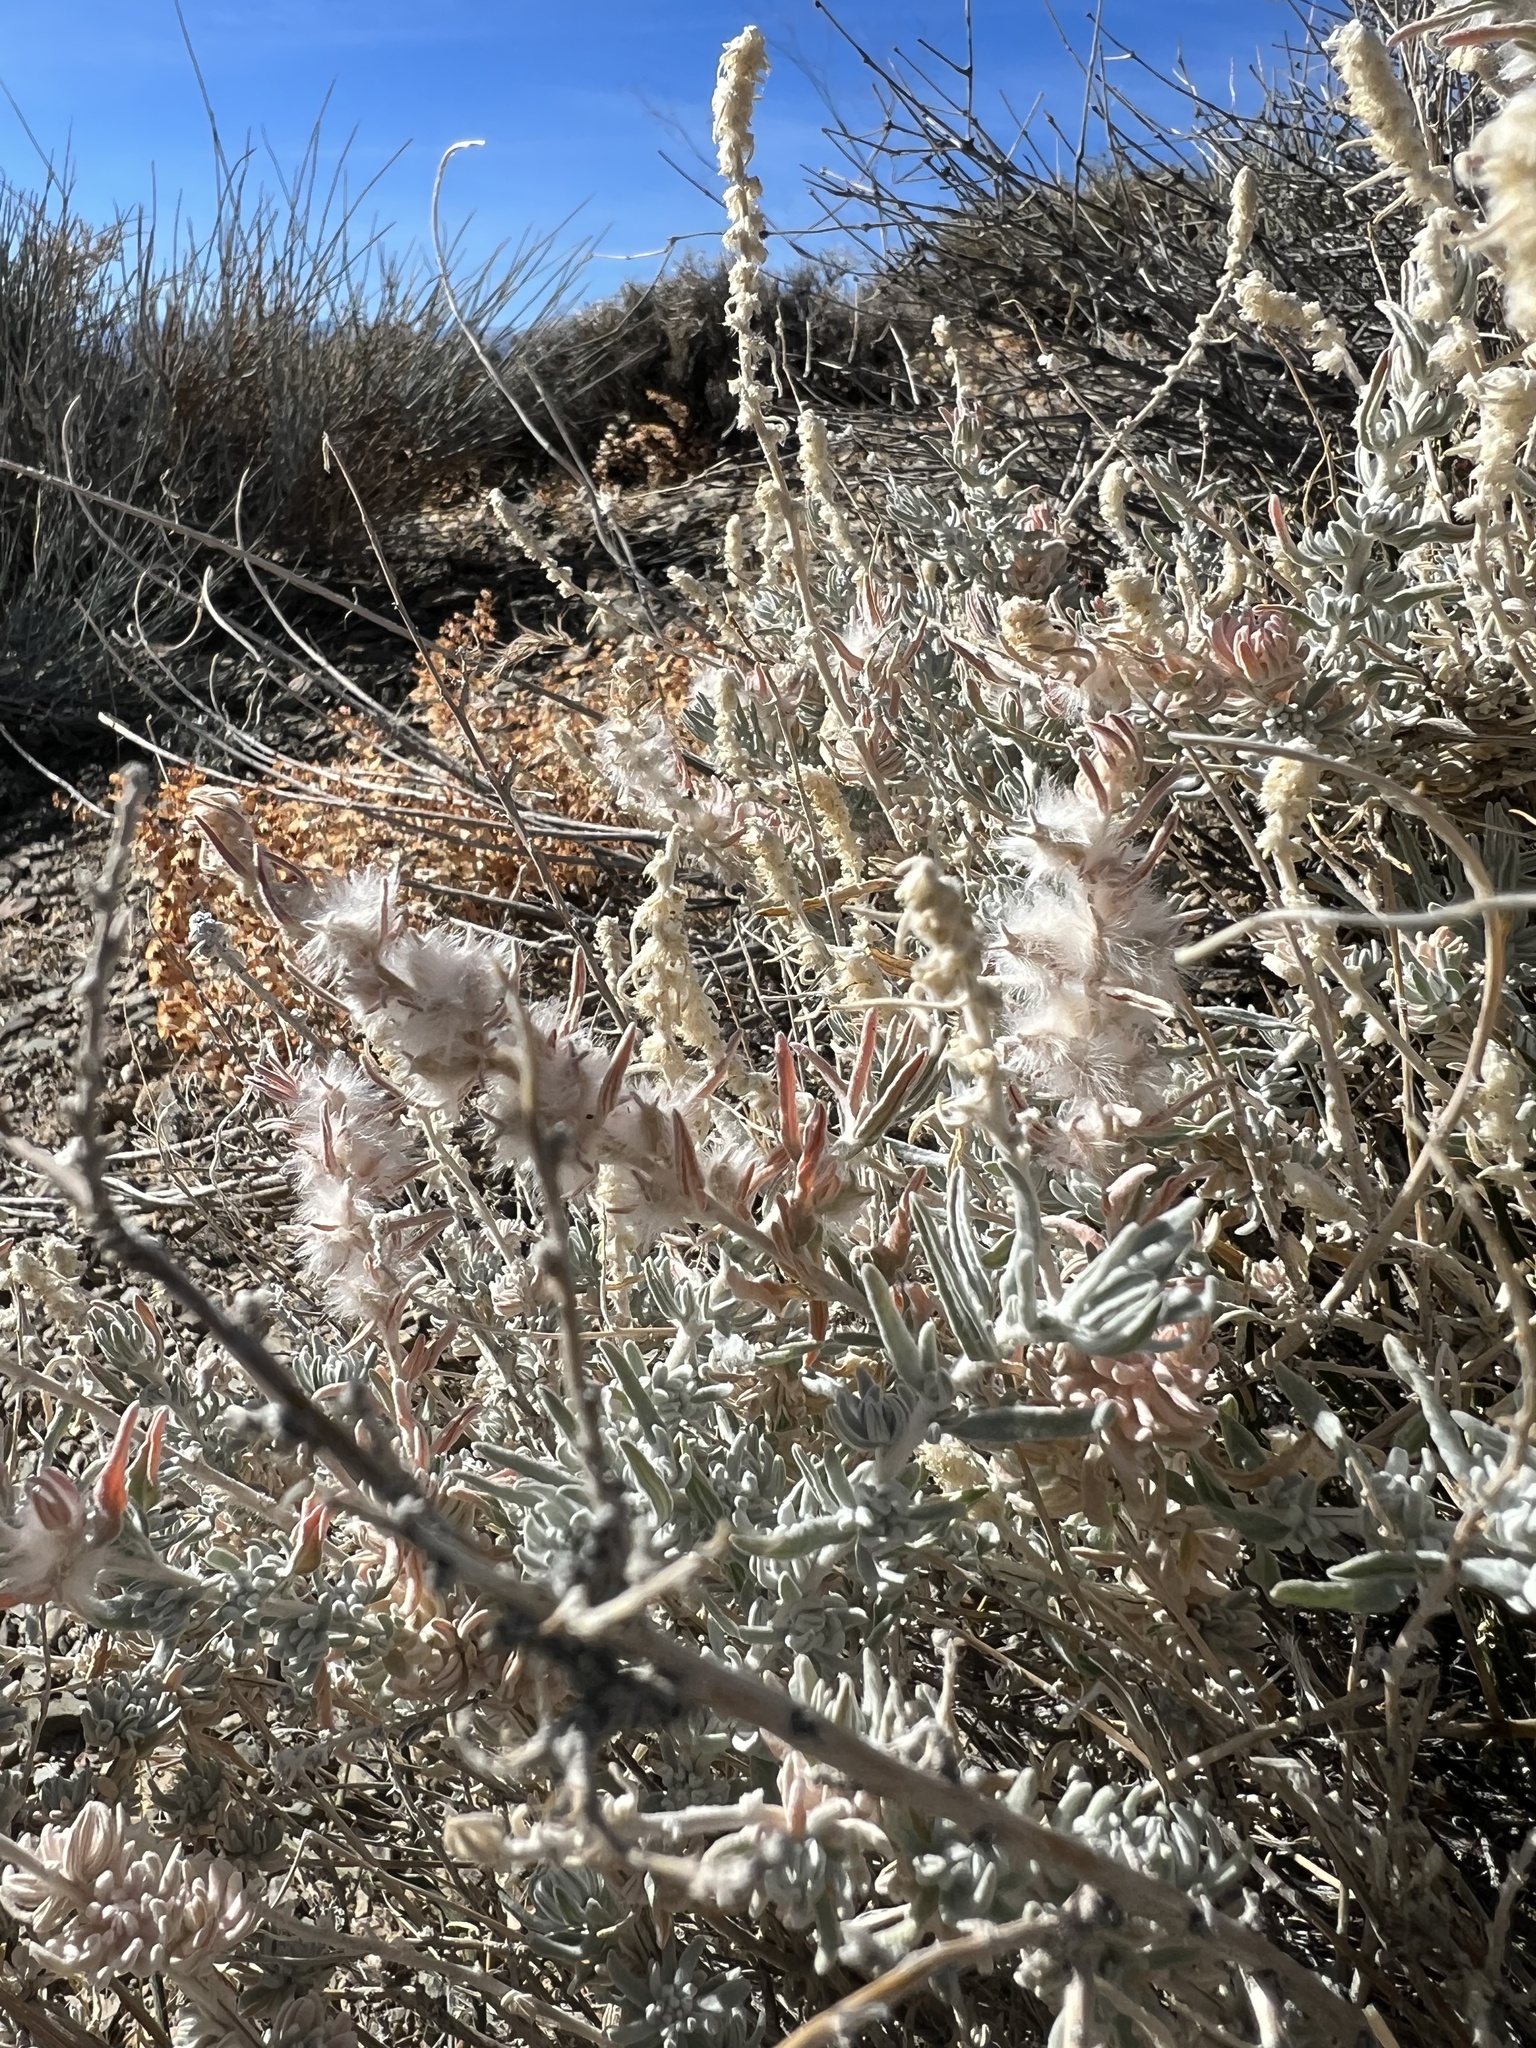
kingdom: Plantae
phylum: Tracheophyta
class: Magnoliopsida
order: Caryophyllales
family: Amaranthaceae
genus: Krascheninnikovia
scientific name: Krascheninnikovia lanata
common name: Winterfat
